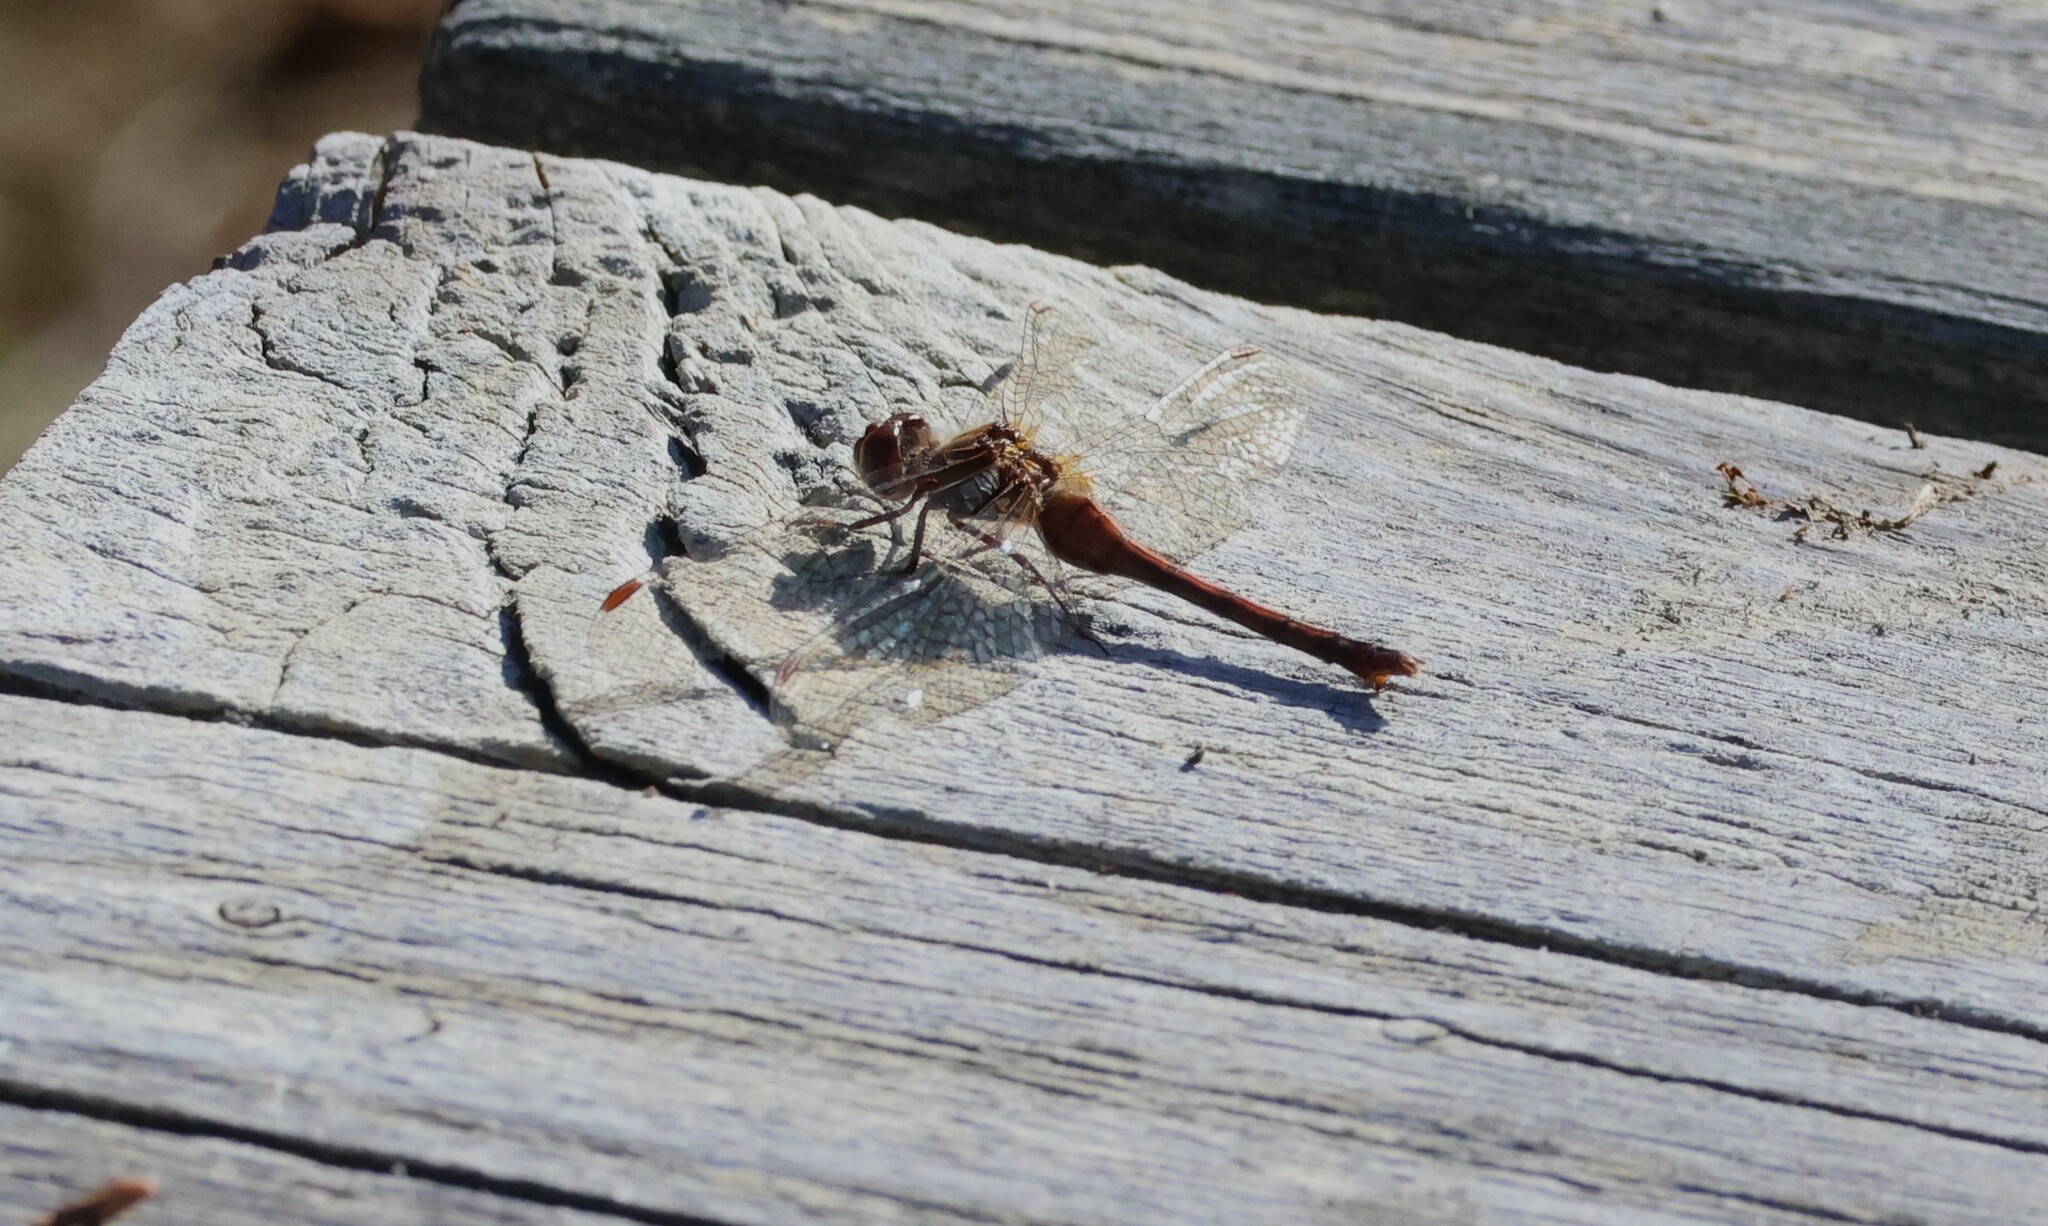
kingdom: Animalia
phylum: Arthropoda
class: Insecta
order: Odonata
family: Libellulidae
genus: Sympetrum
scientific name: Sympetrum vicinum
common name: Autumn meadowhawk
